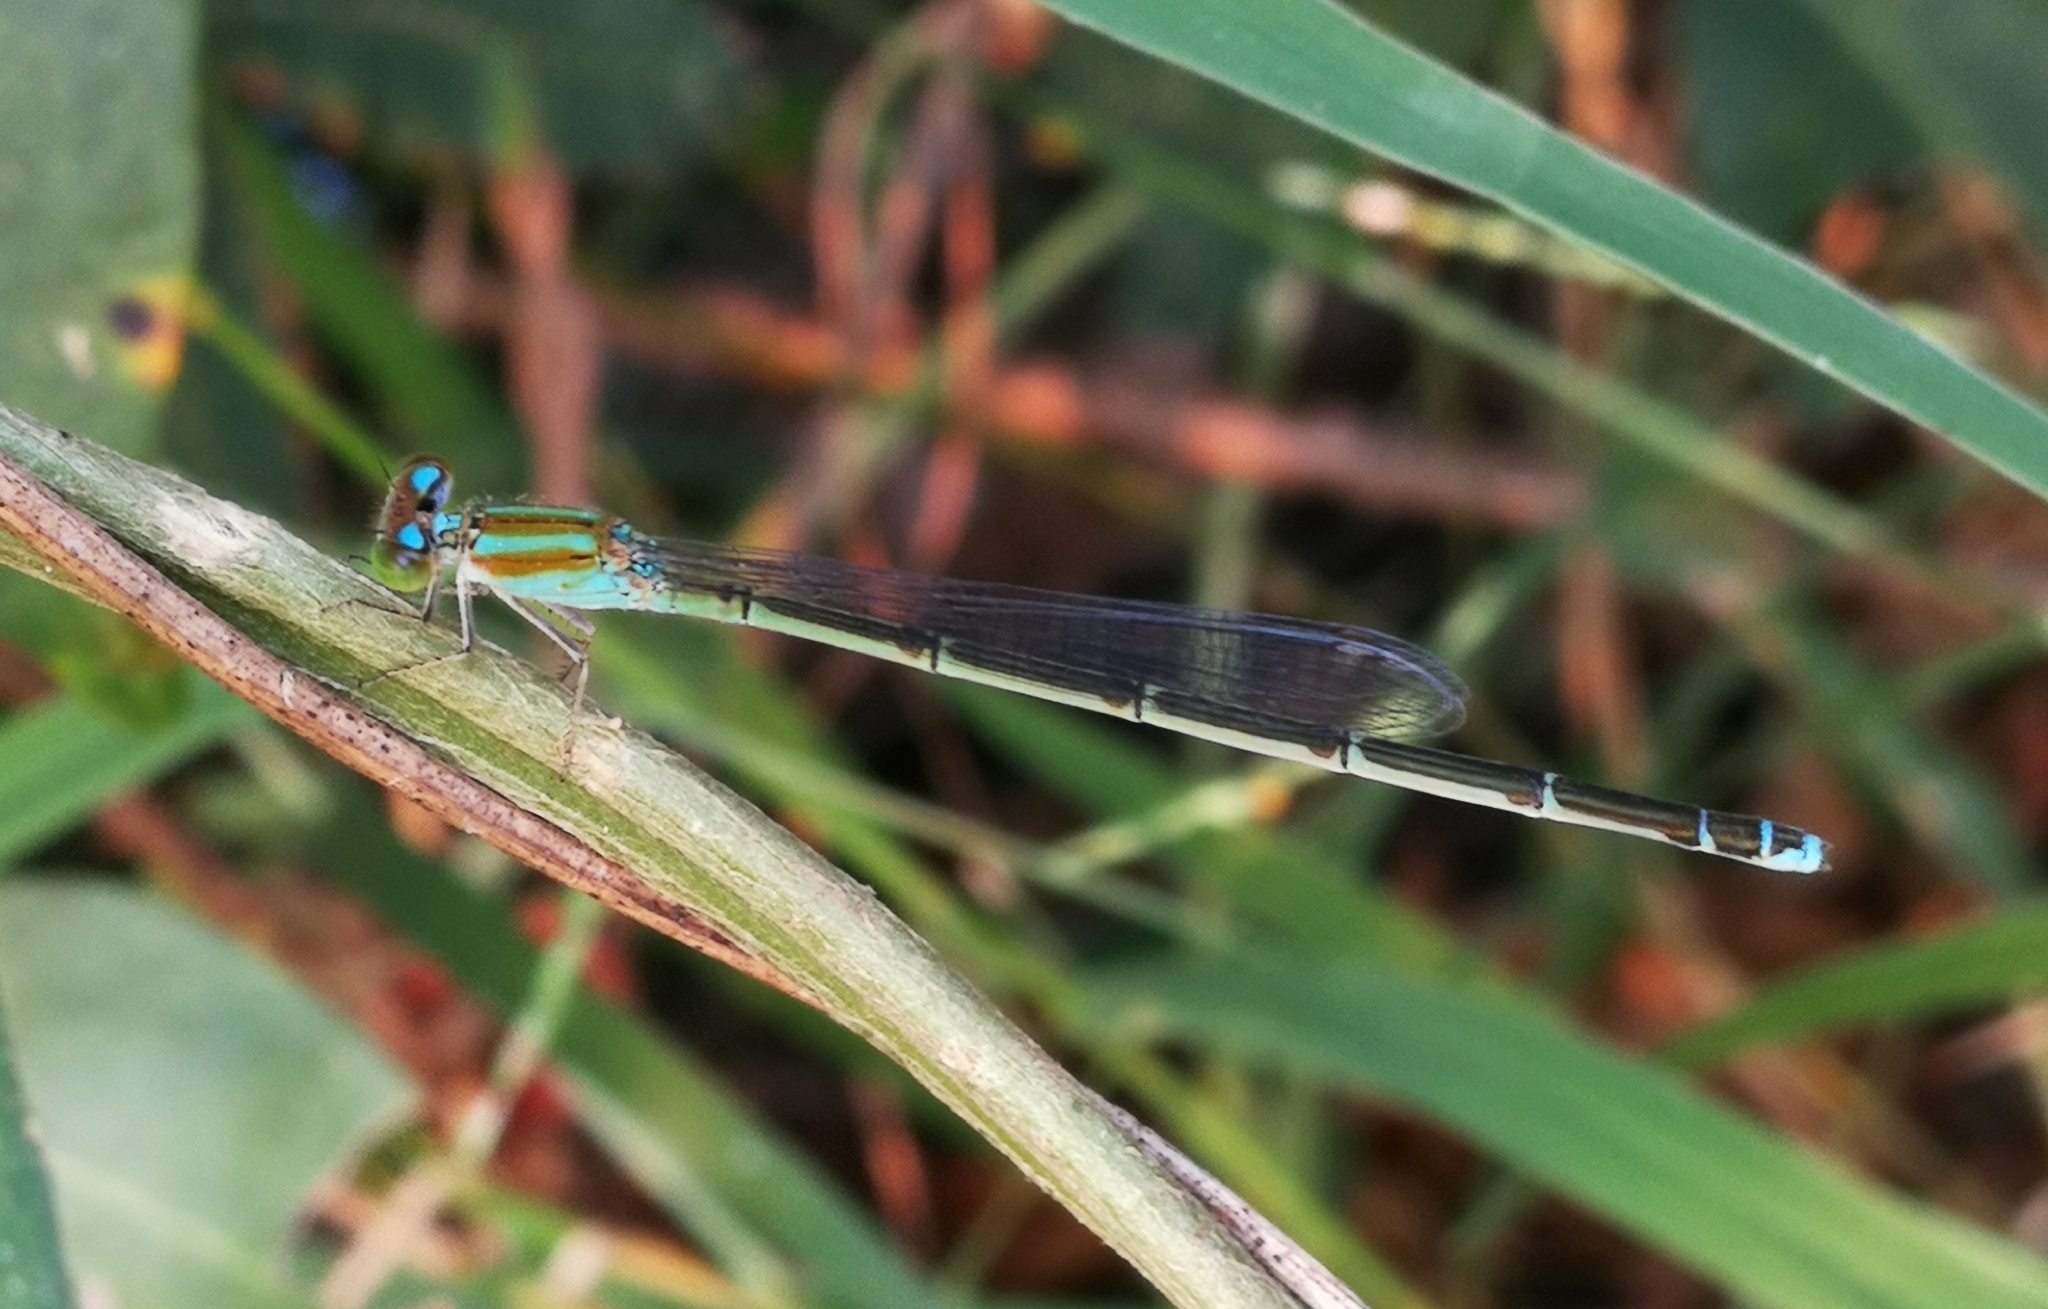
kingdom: Animalia
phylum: Arthropoda
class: Insecta
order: Odonata
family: Coenagrionidae
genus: Pseudagrion
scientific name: Pseudagrion microcephalum
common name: Blue riverdamsel
